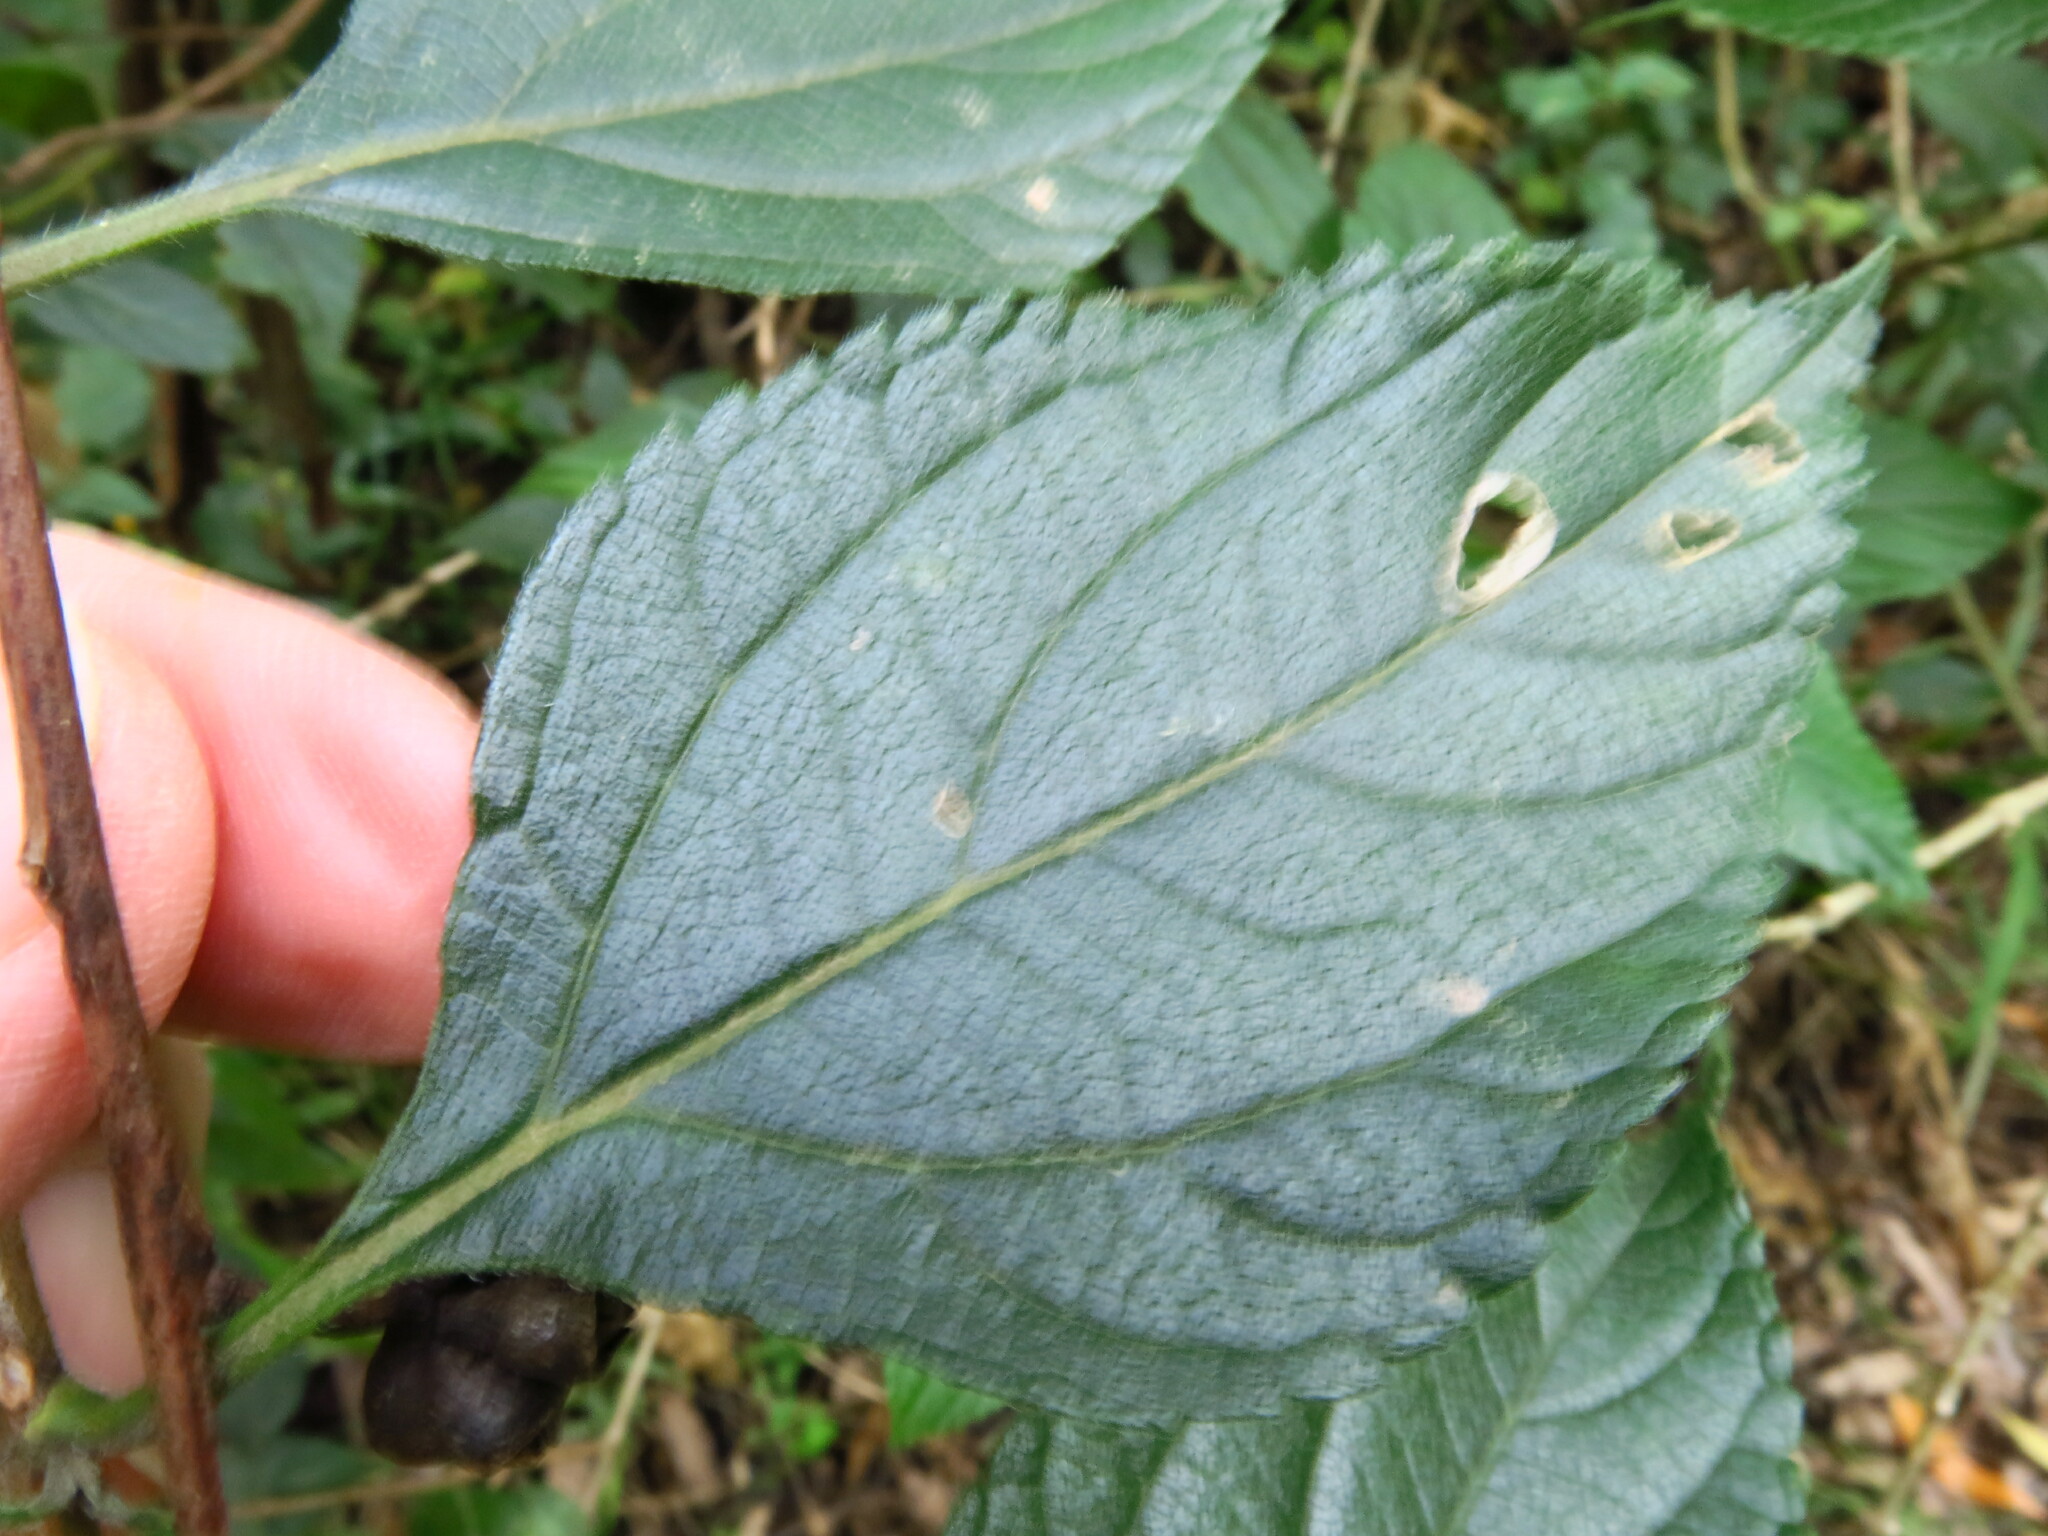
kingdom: Plantae
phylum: Tracheophyta
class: Magnoliopsida
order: Lamiales
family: Verbenaceae
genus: Lantana
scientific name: Lantana camara
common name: Lantana
